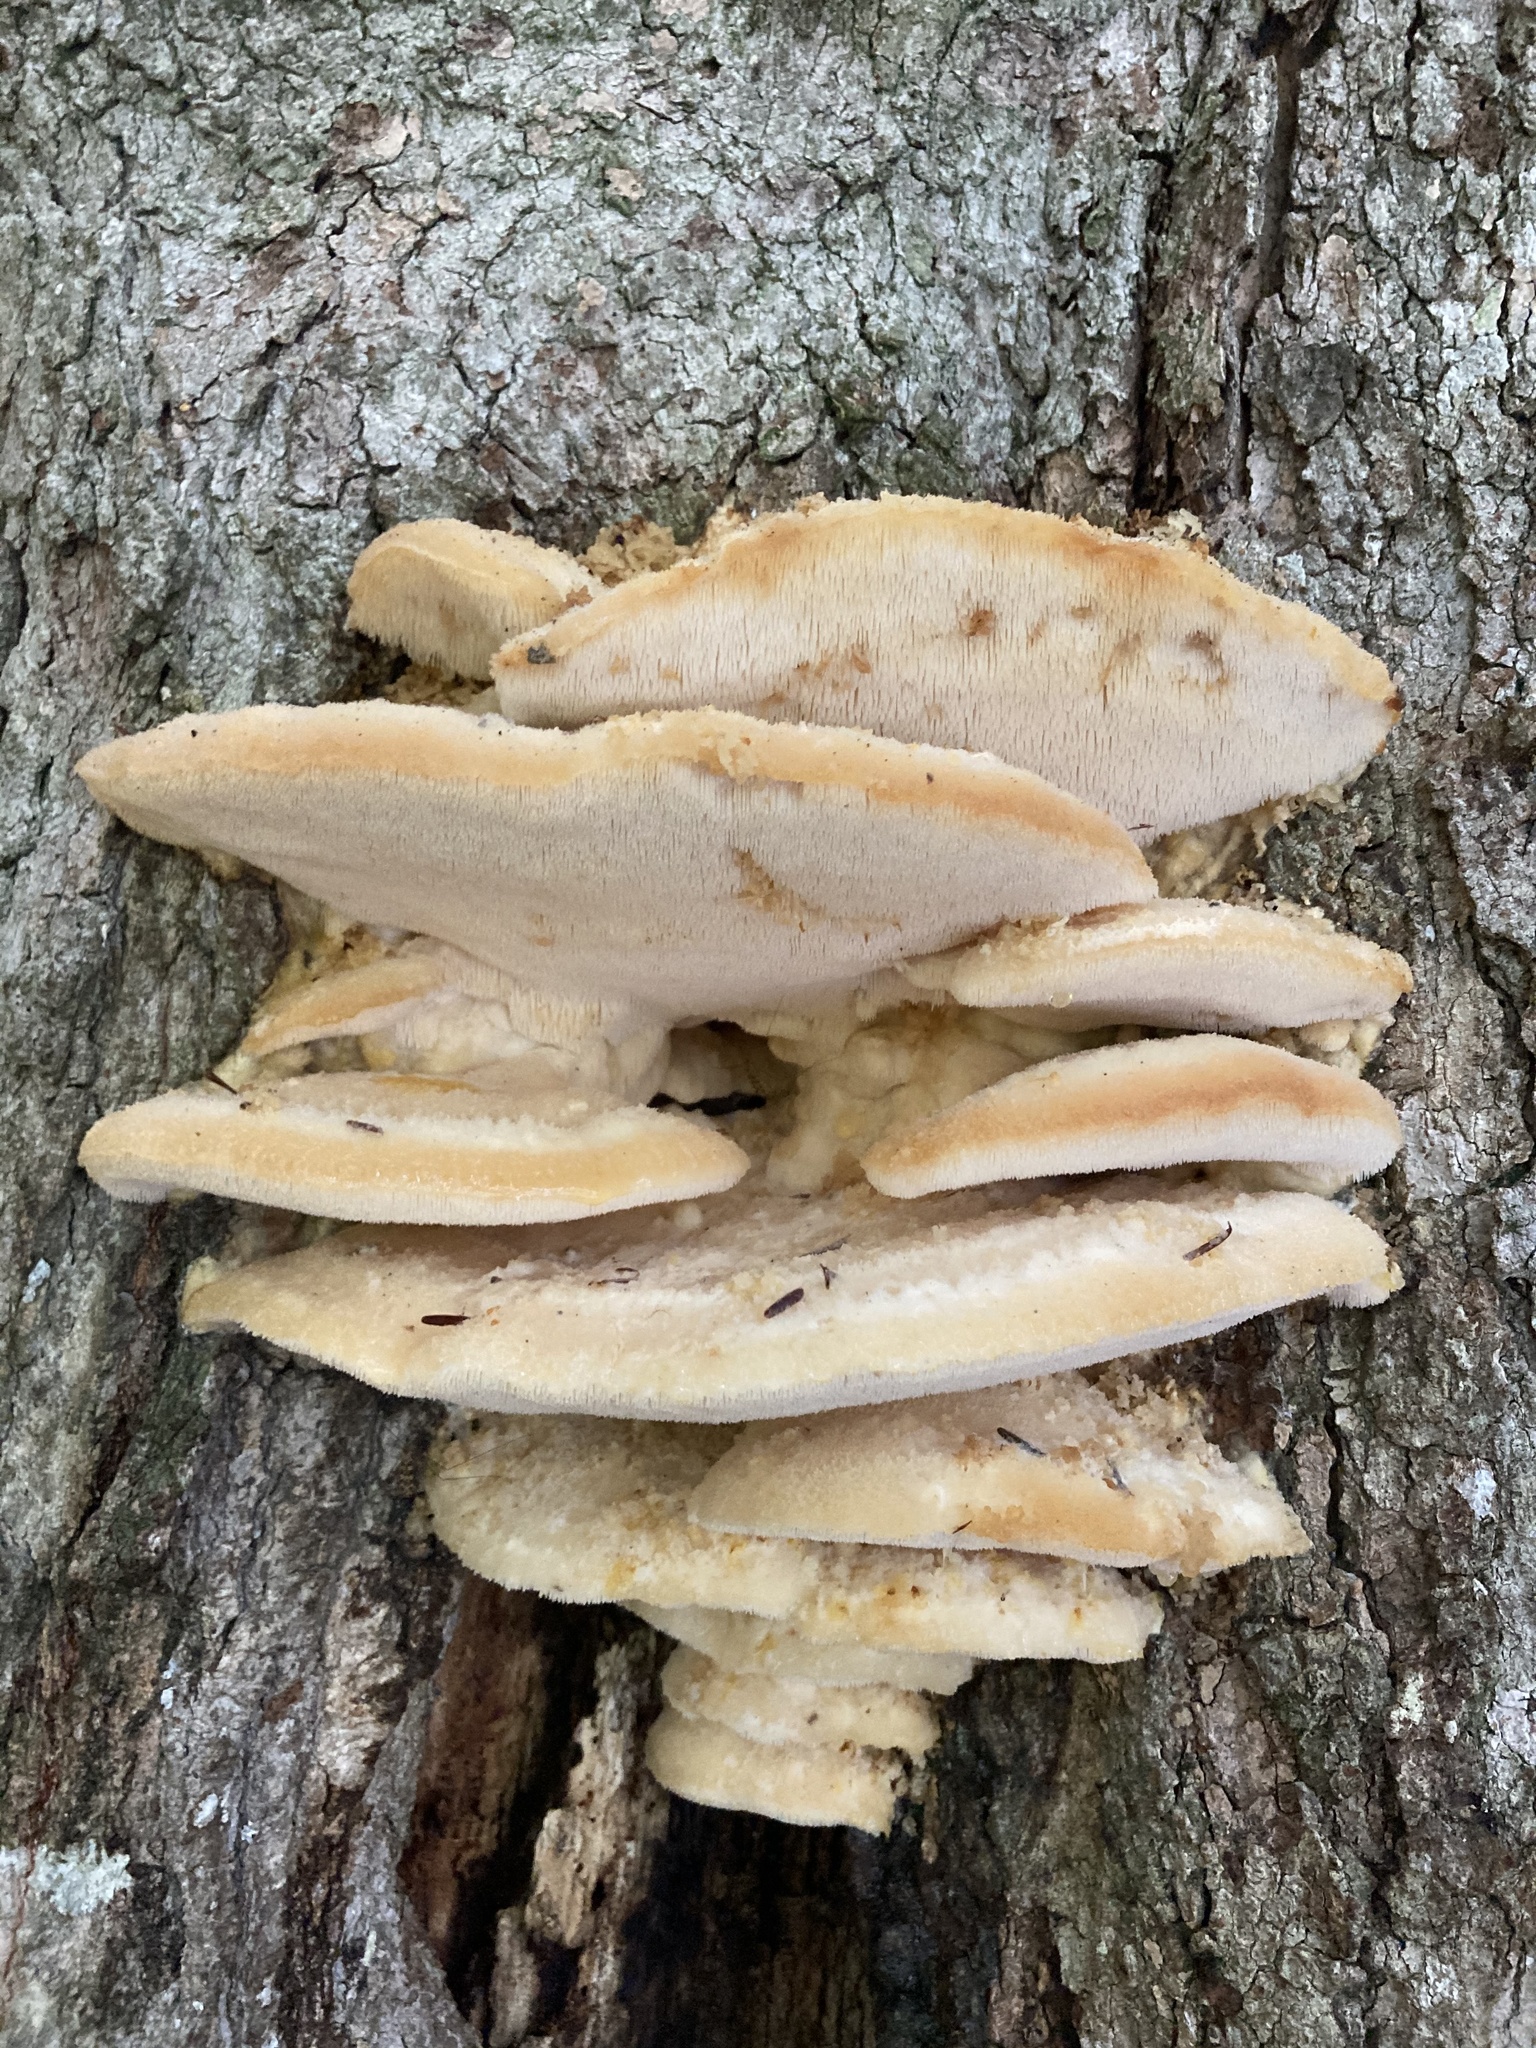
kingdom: Fungi
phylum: Basidiomycota
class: Agaricomycetes
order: Polyporales
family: Meruliaceae
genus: Climacodon
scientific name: Climacodon septentrionalis
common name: Northern tooth
